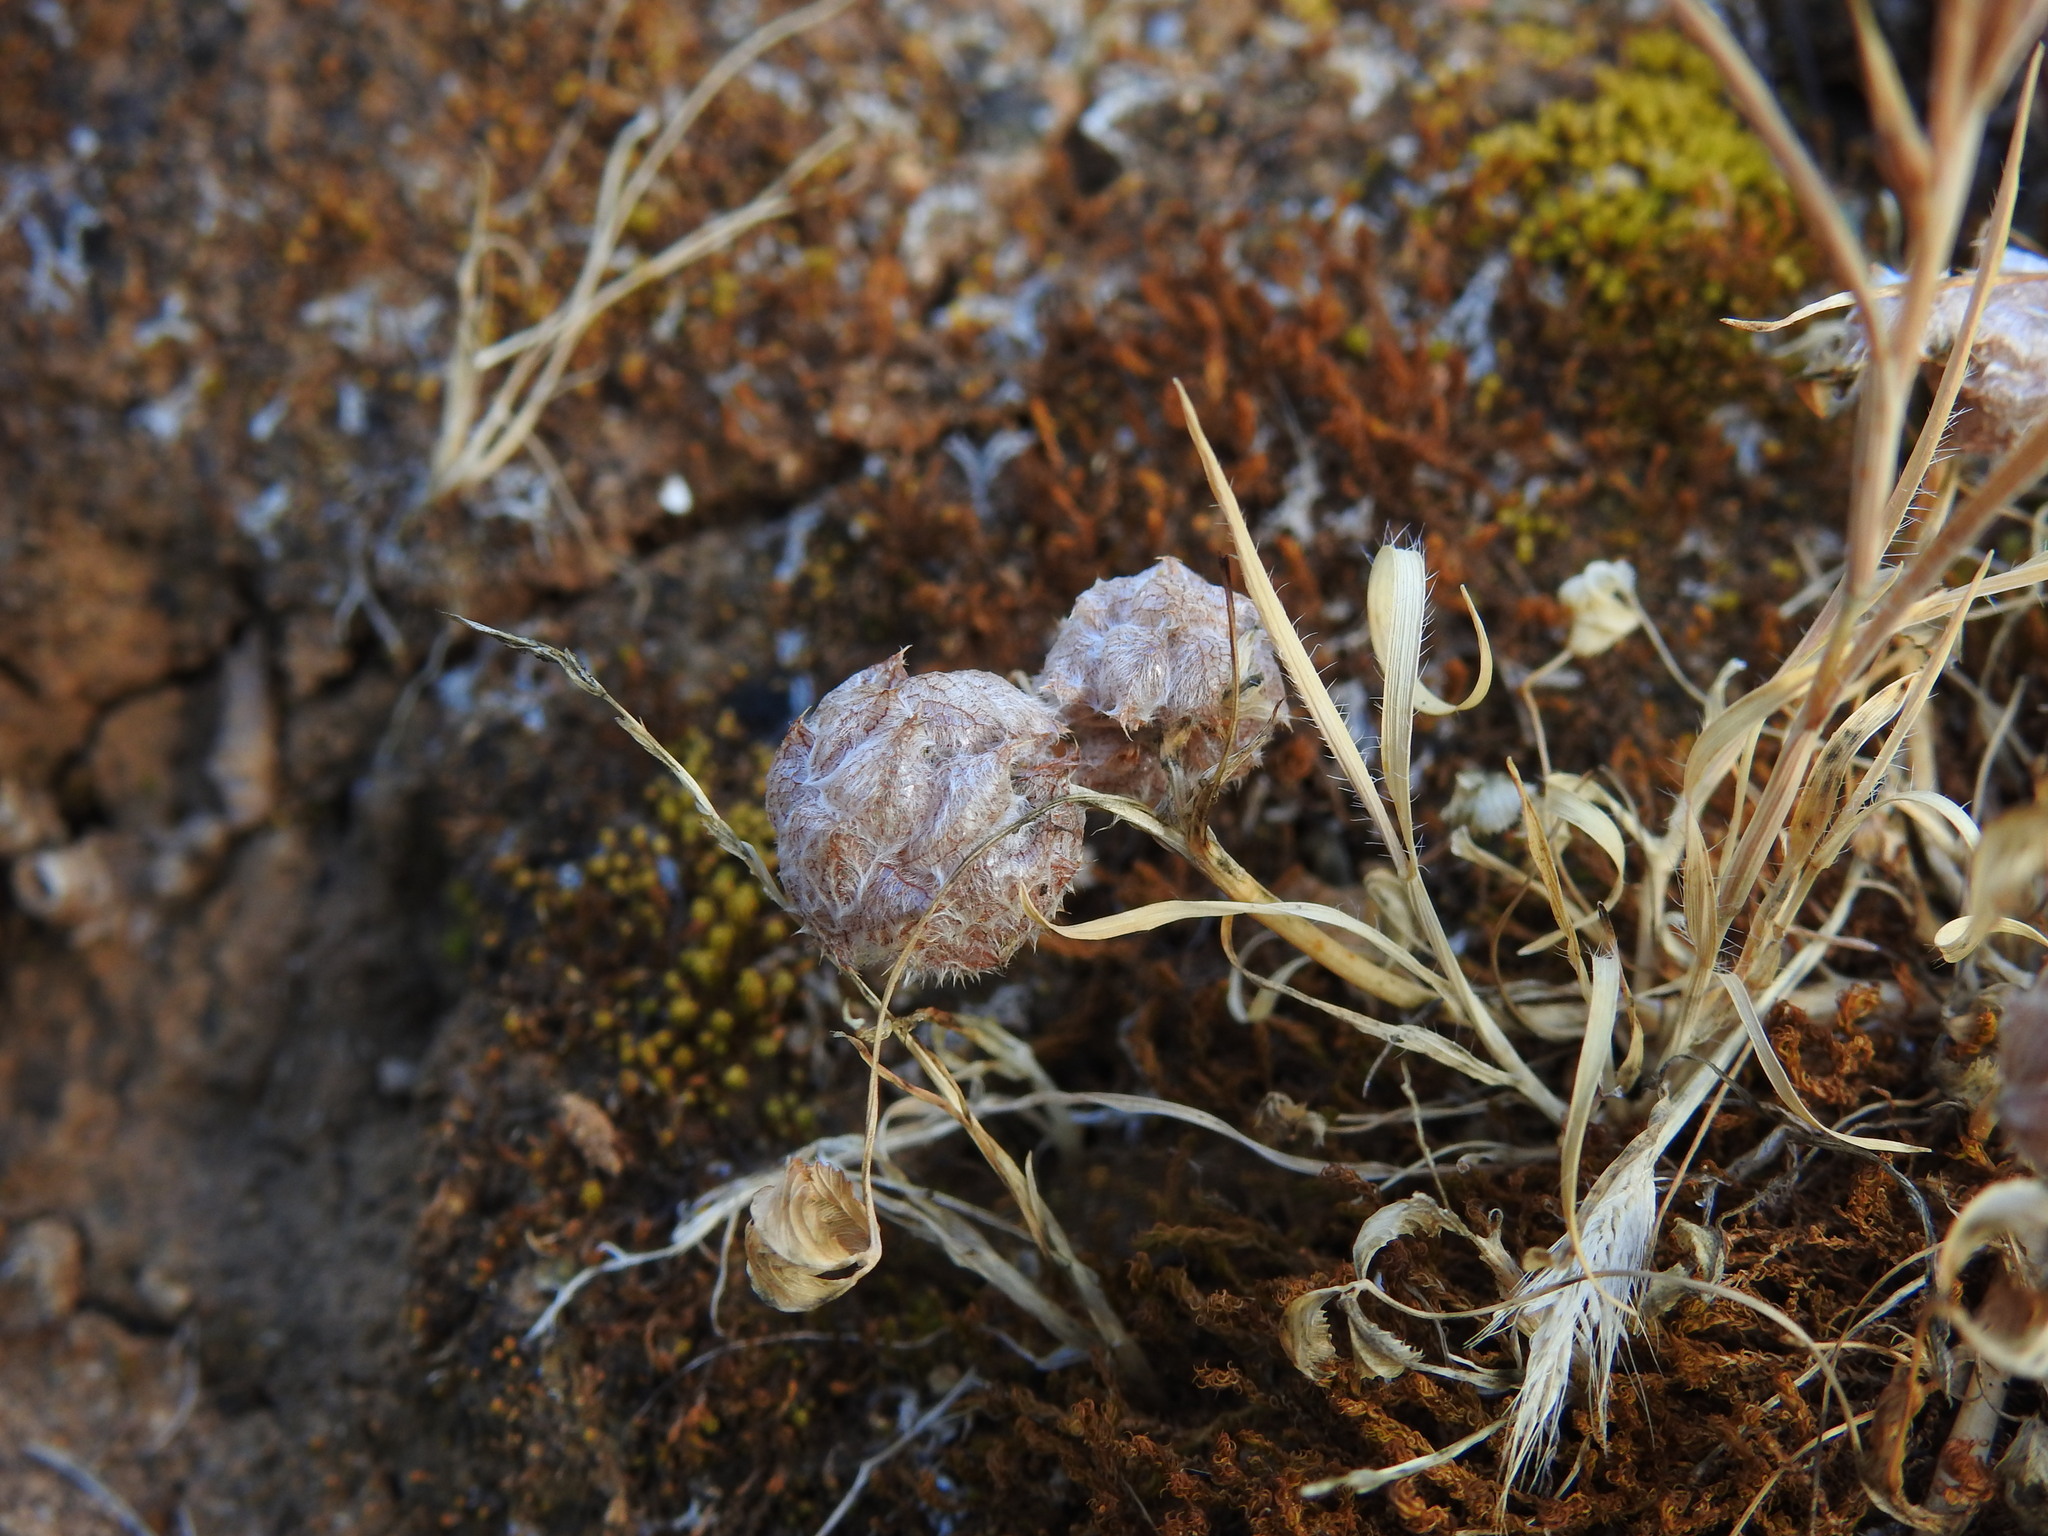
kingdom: Plantae
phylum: Tracheophyta
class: Magnoliopsida
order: Fabales
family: Fabaceae
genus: Trifolium
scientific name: Trifolium tomentosum
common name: Woolly clover
